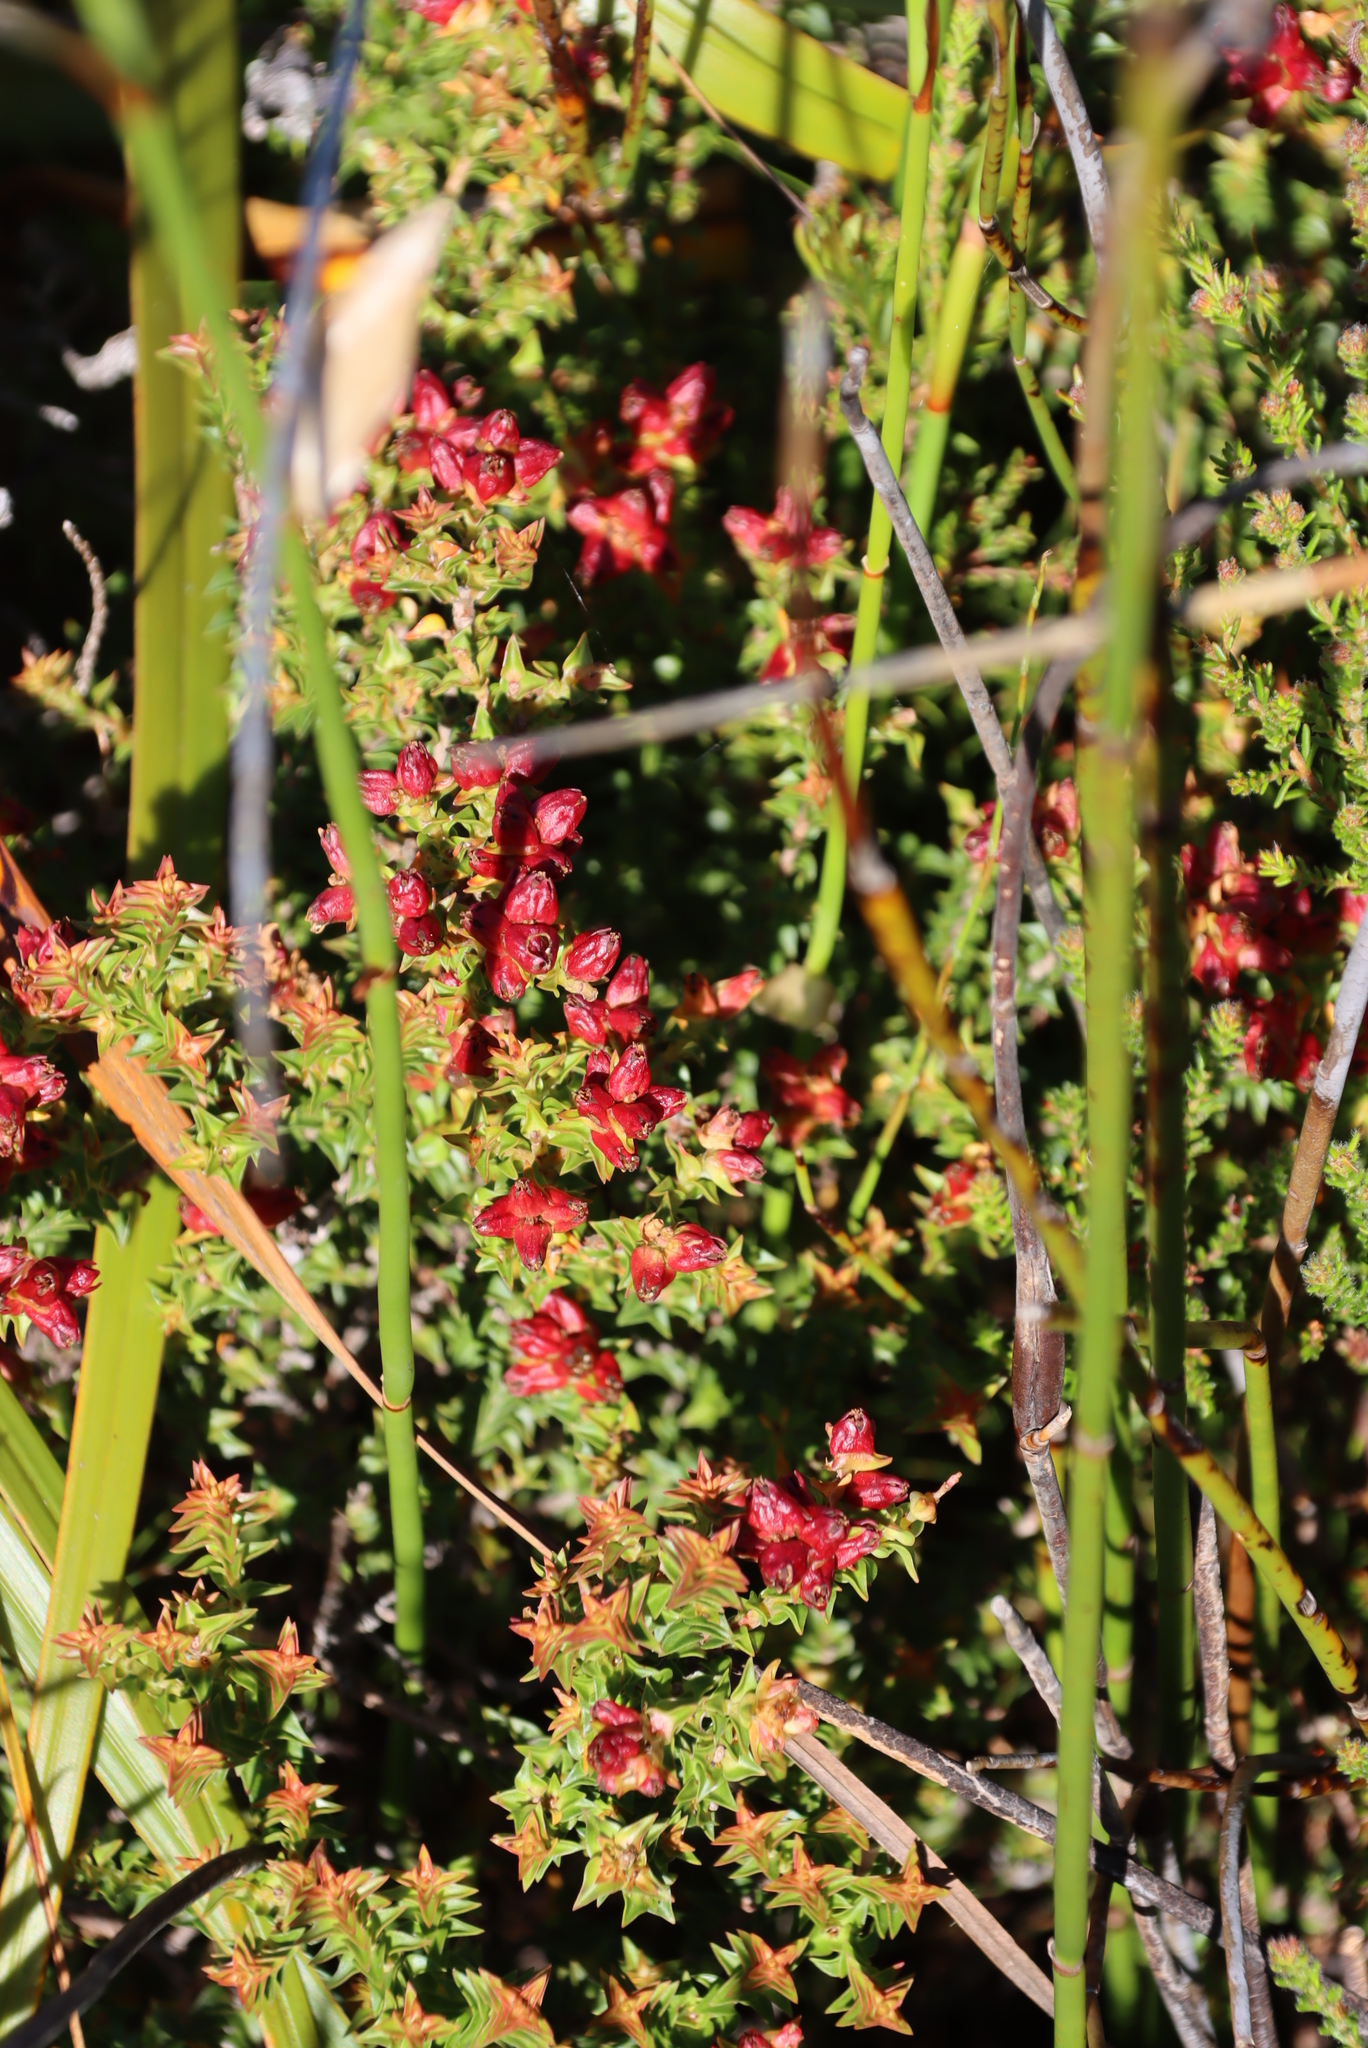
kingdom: Plantae
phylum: Tracheophyta
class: Magnoliopsida
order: Myrtales
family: Penaeaceae
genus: Penaea
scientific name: Penaea mucronata
